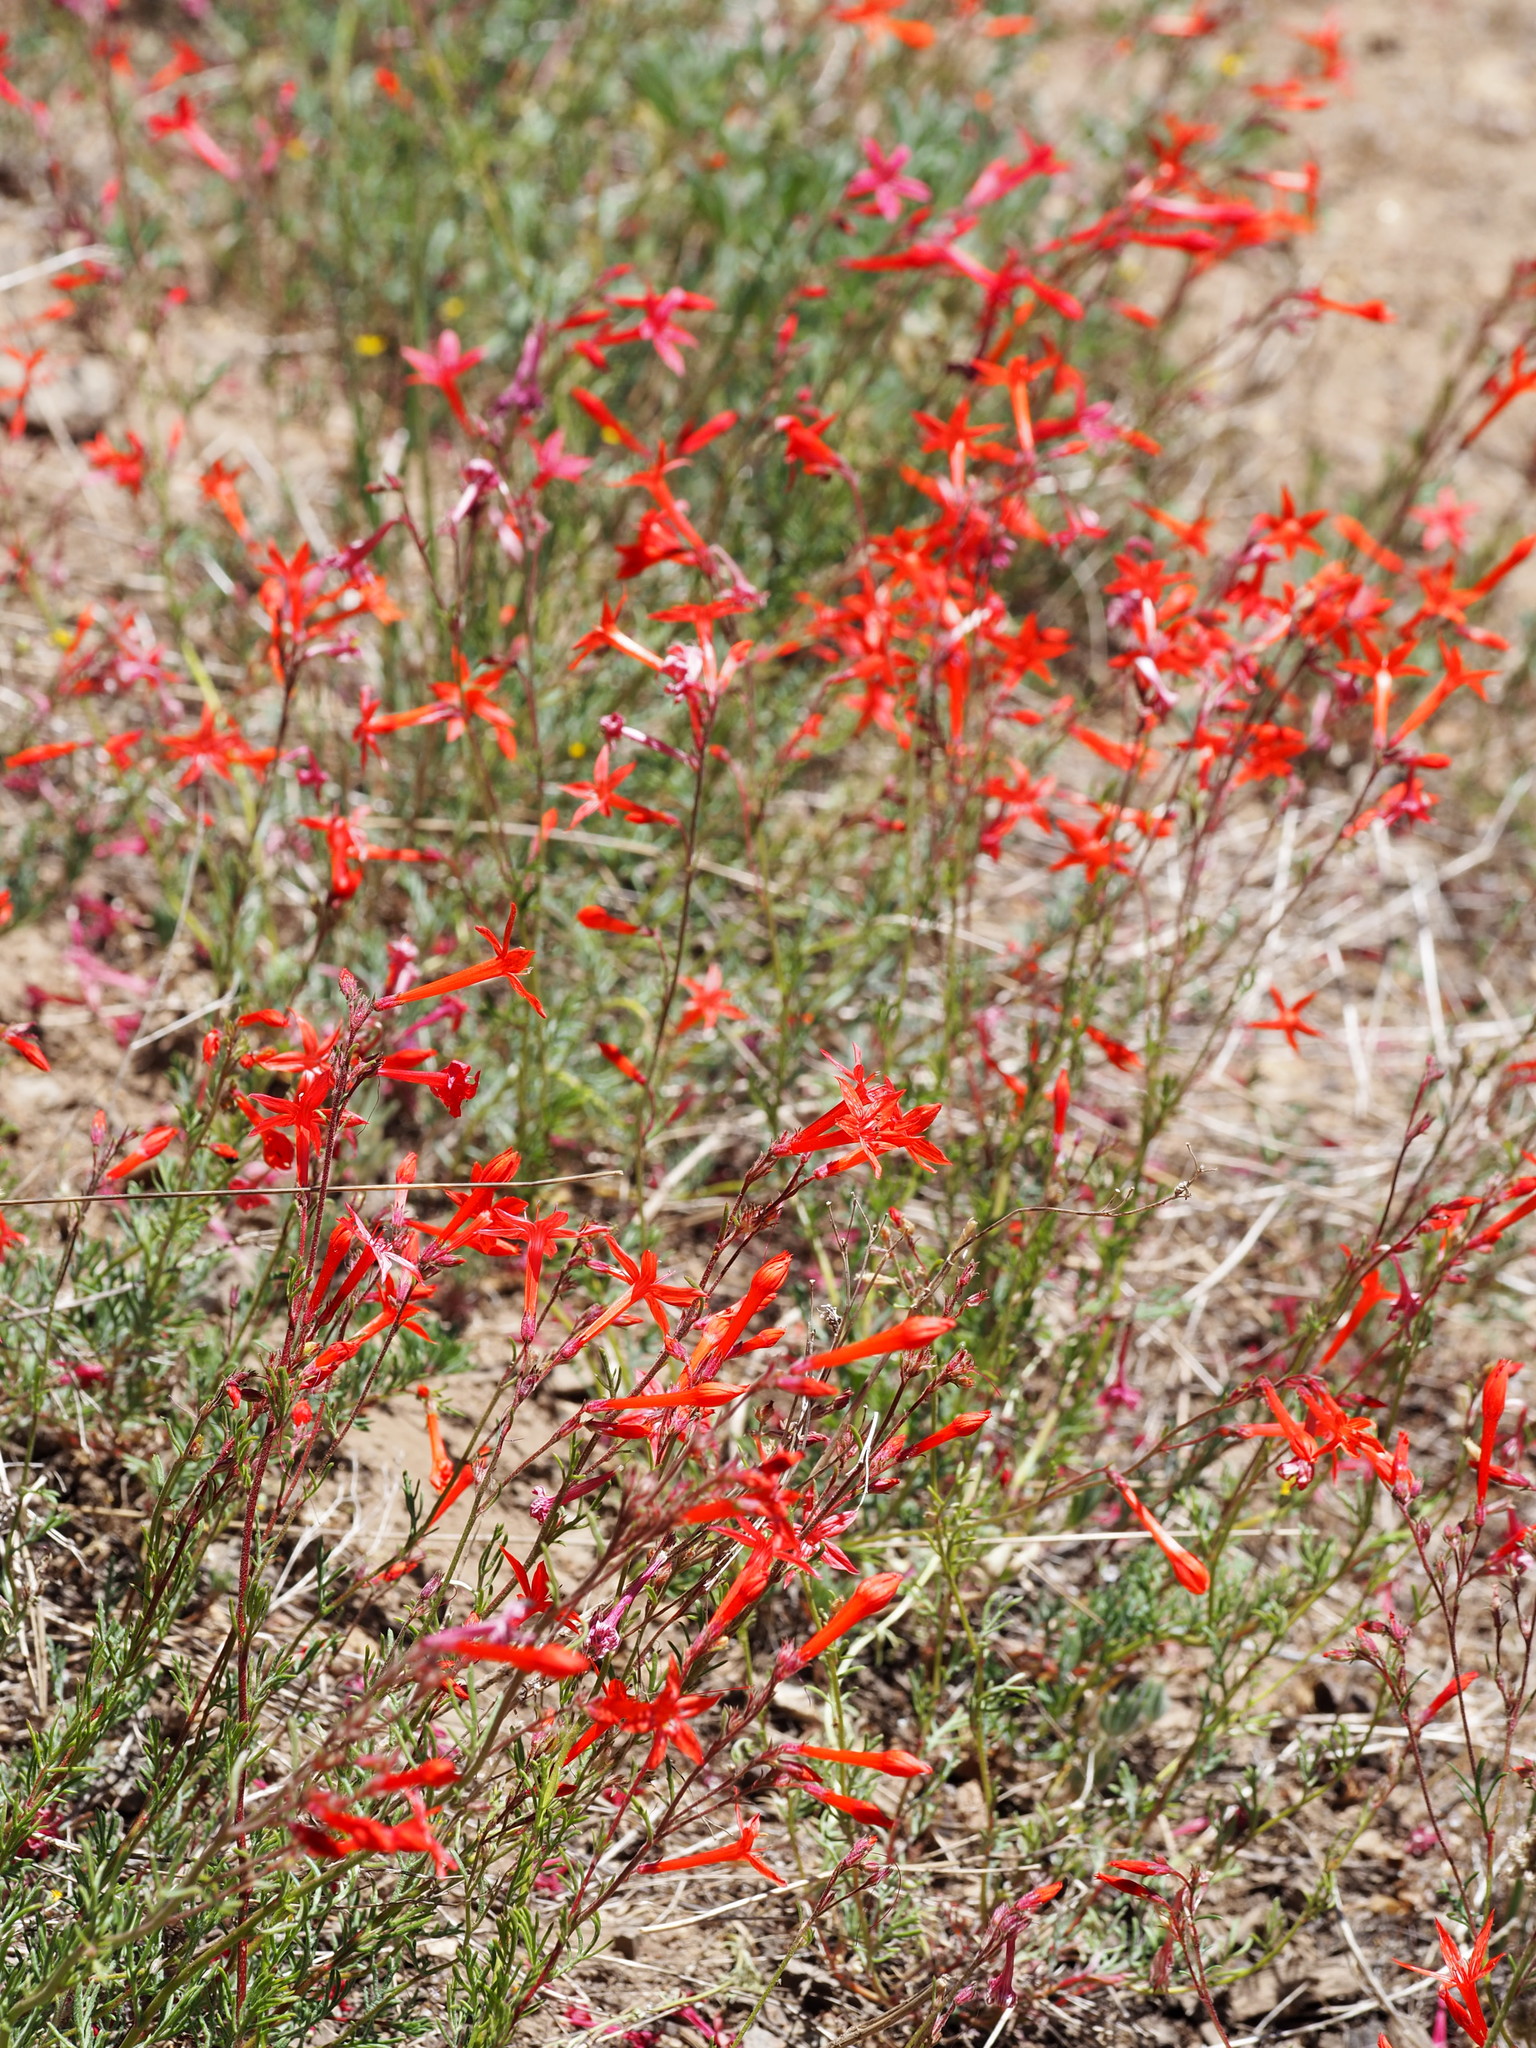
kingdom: Plantae
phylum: Tracheophyta
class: Magnoliopsida
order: Ericales
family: Polemoniaceae
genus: Ipomopsis
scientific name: Ipomopsis aggregata
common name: Scarlet gilia
